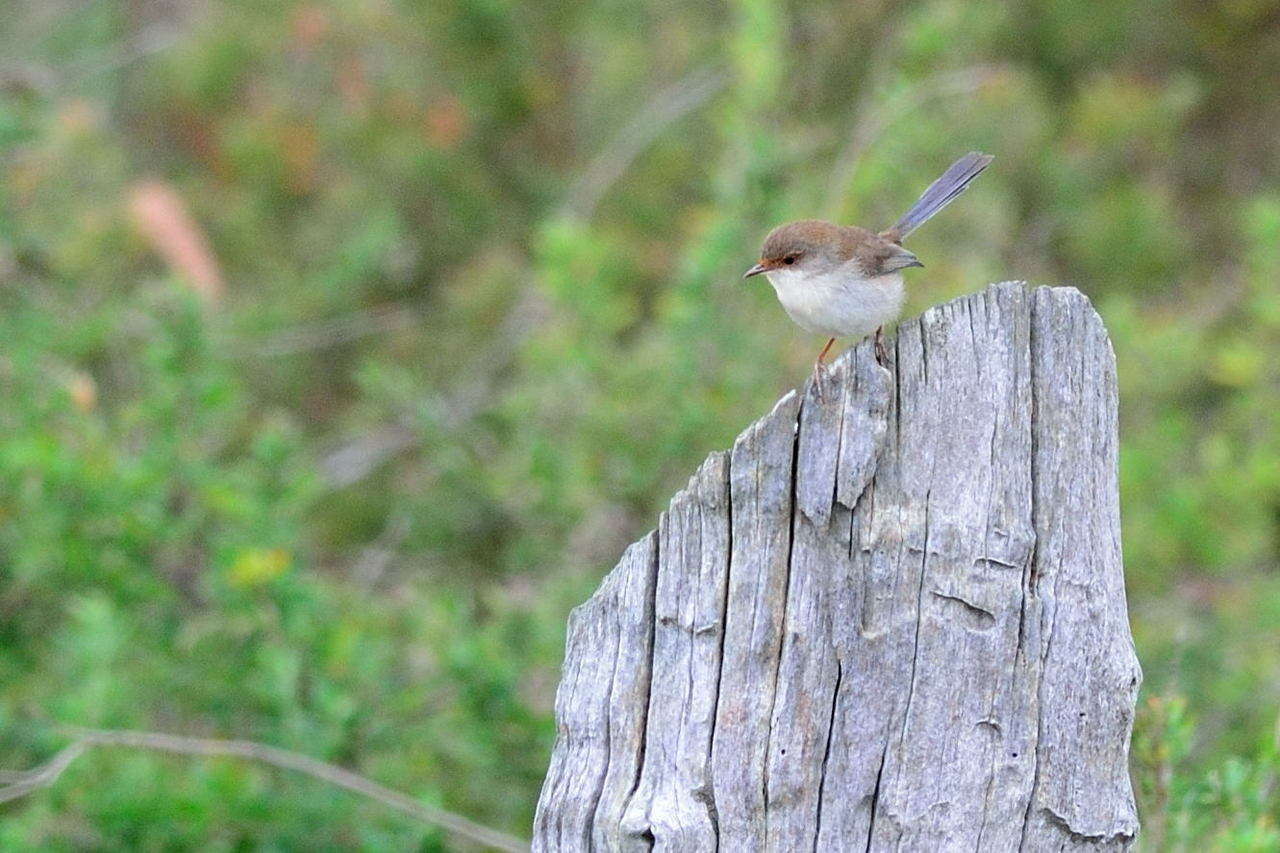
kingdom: Animalia
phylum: Chordata
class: Aves
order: Passeriformes
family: Maluridae
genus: Malurus
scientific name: Malurus cyaneus
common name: Superb fairywren
